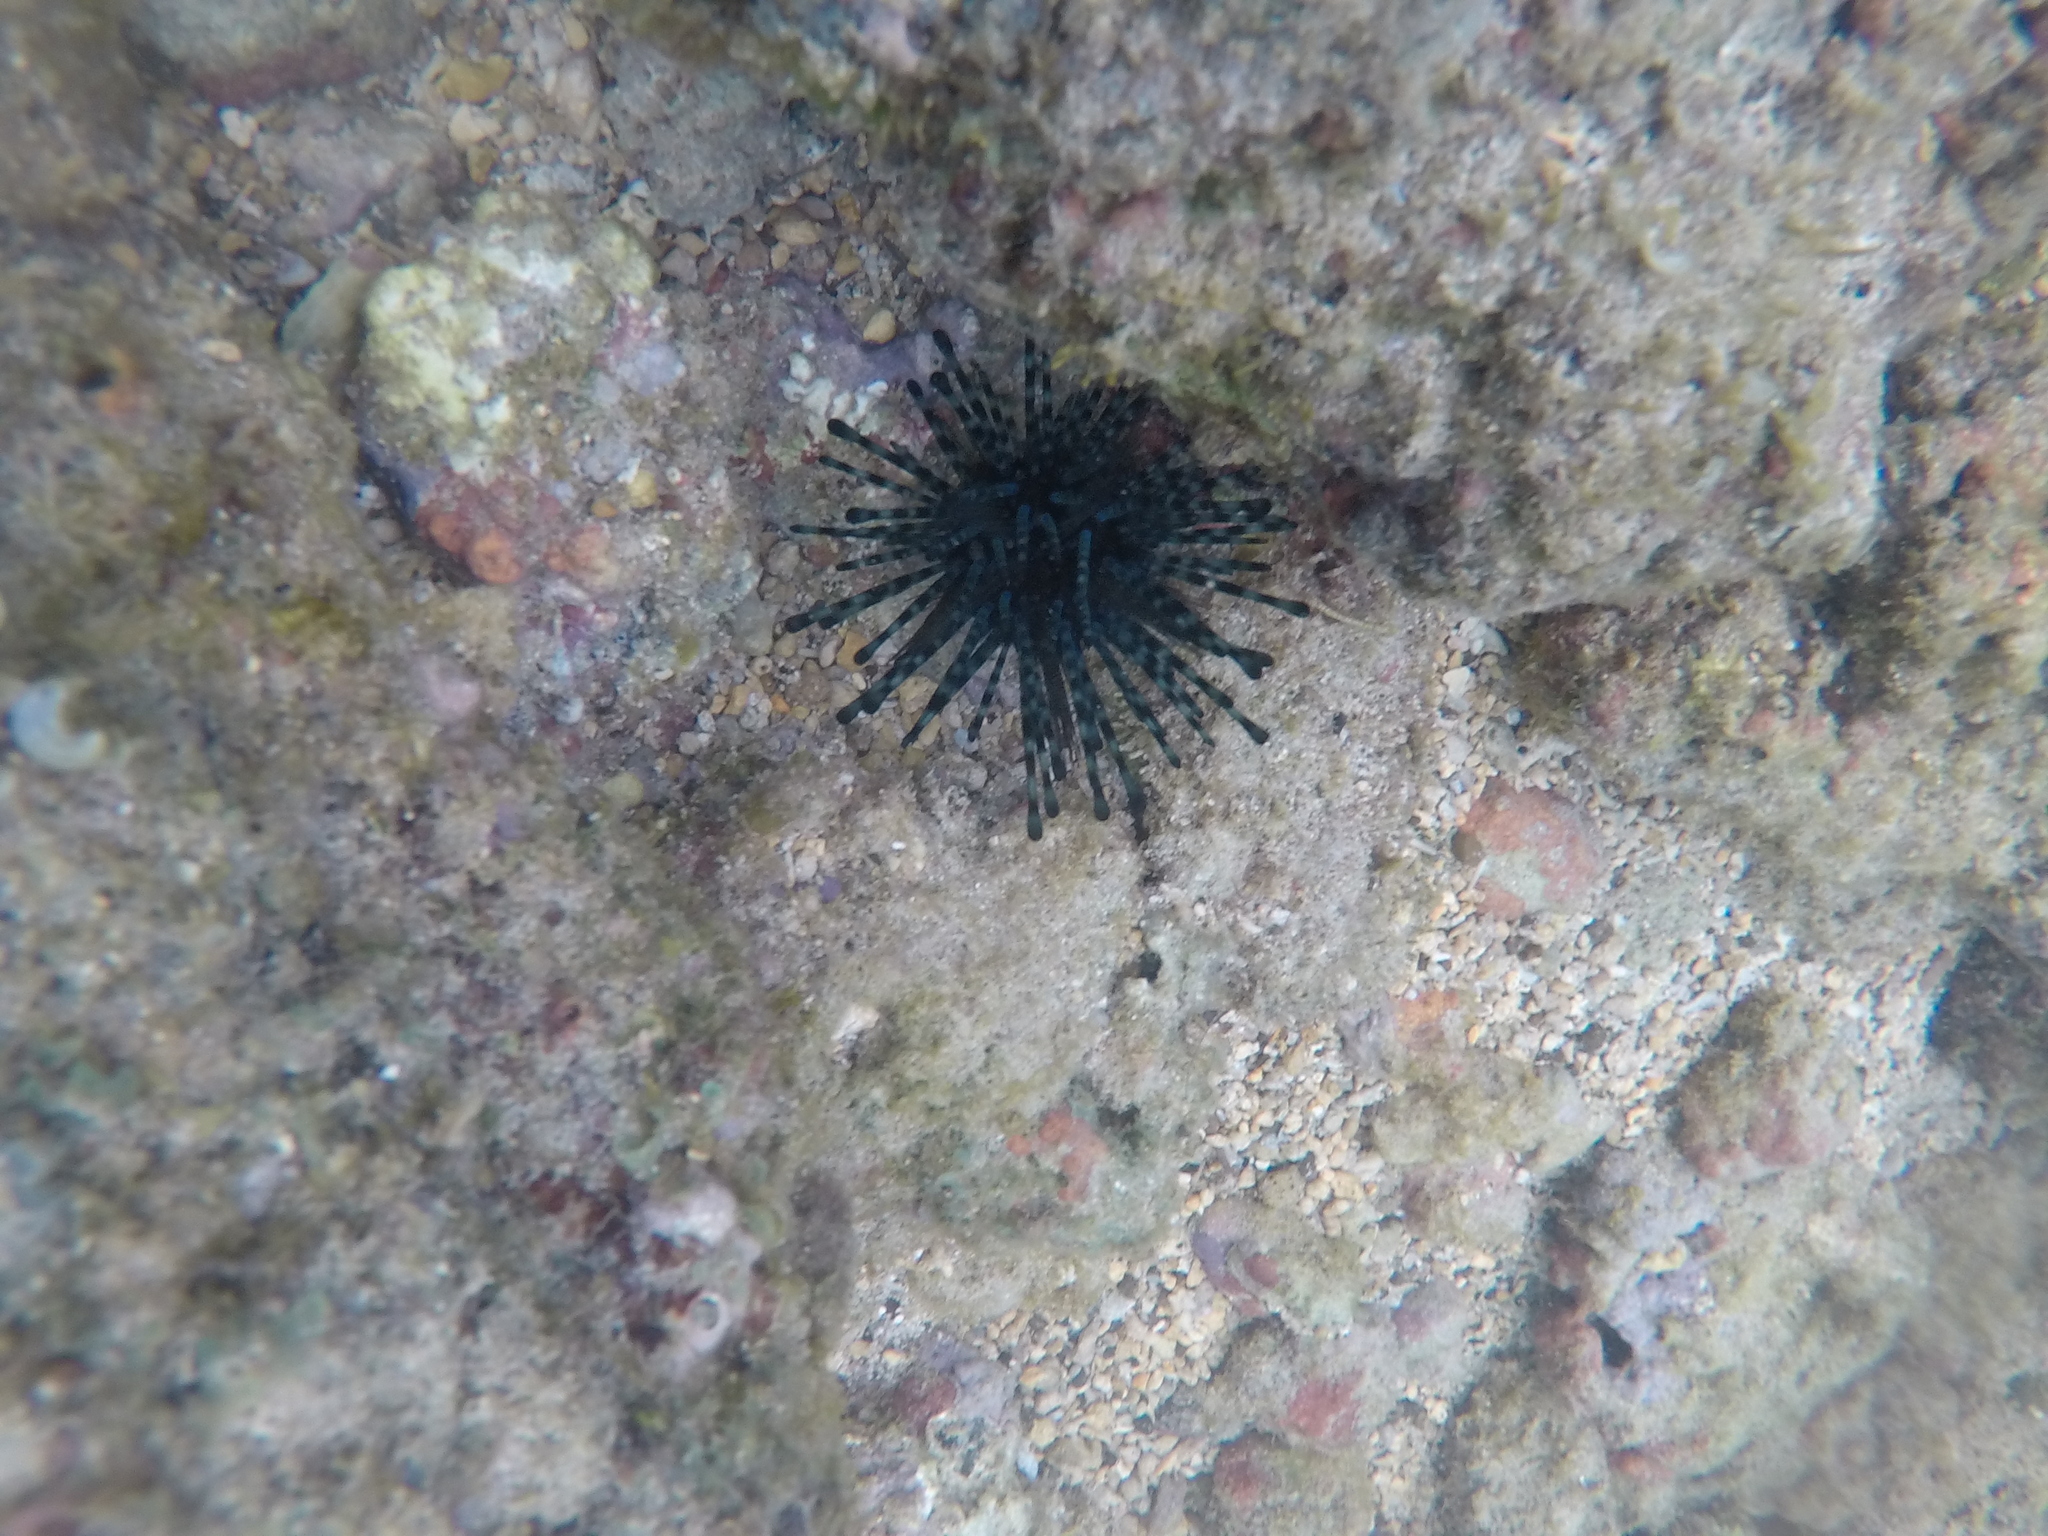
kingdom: Animalia
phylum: Echinodermata
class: Echinoidea
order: Diadematoida
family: Diadematidae
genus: Echinothrix
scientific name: Echinothrix calamaris
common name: Banded sea urchin
